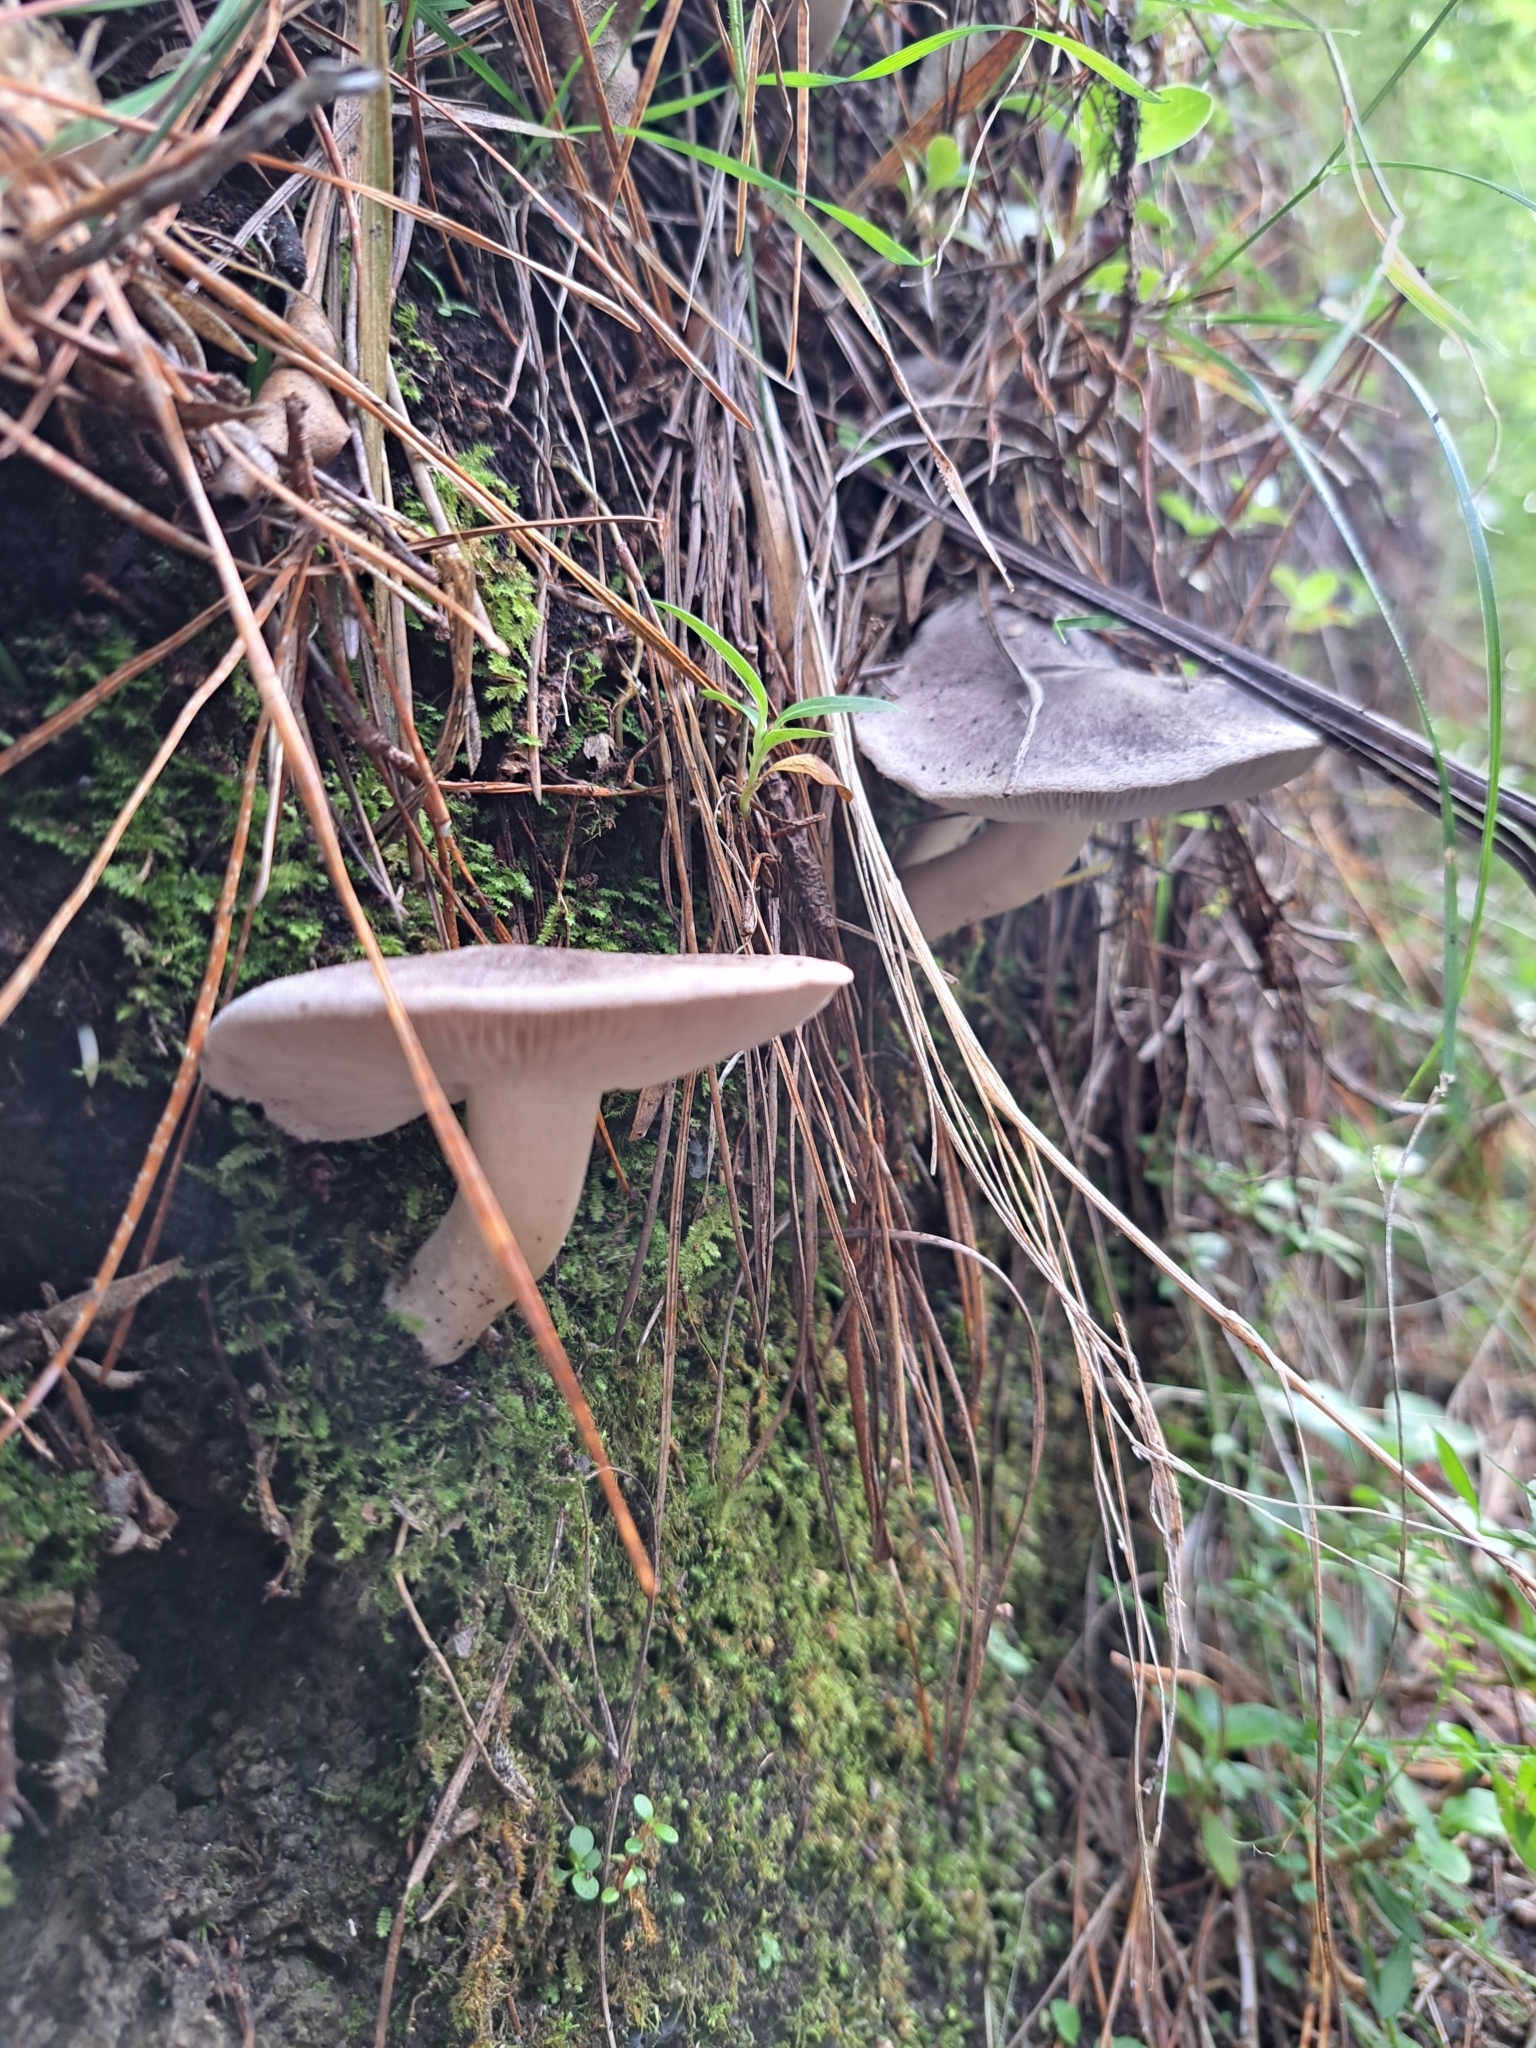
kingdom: Fungi
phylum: Basidiomycota
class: Agaricomycetes
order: Agaricales
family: Tricholomataceae
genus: Tricholoma
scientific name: Tricholoma terreum
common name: Grey knight
